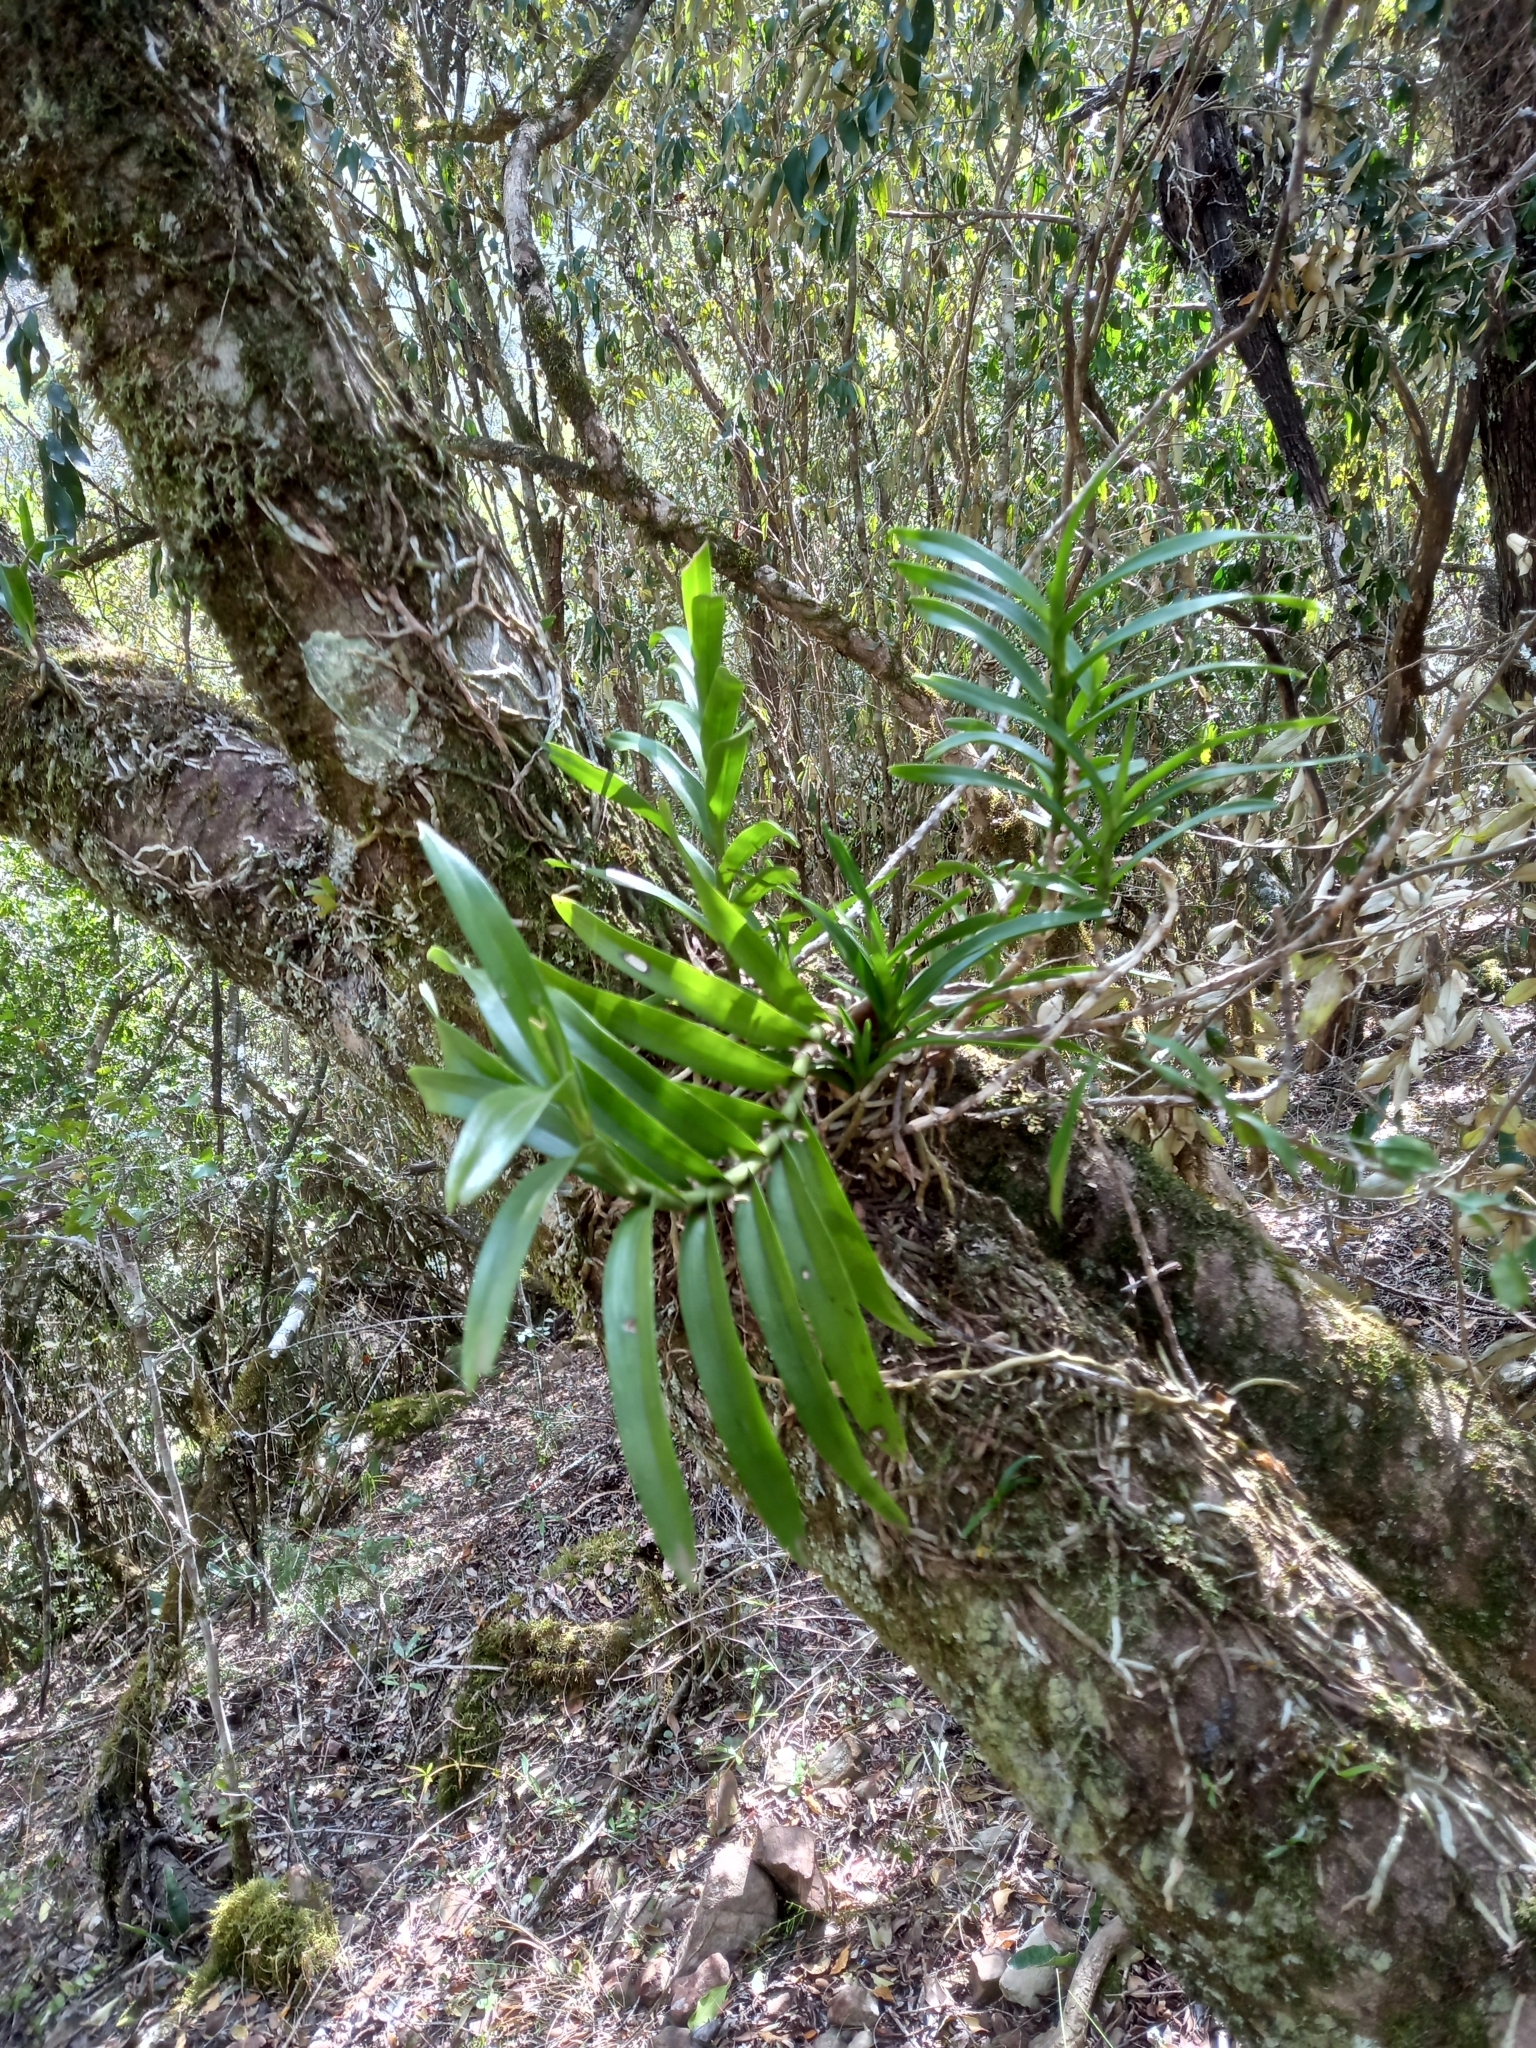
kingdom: Plantae
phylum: Tracheophyta
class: Liliopsida
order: Asparagales
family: Orchidaceae
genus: Tridactyle
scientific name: Tridactyle bicaudata
